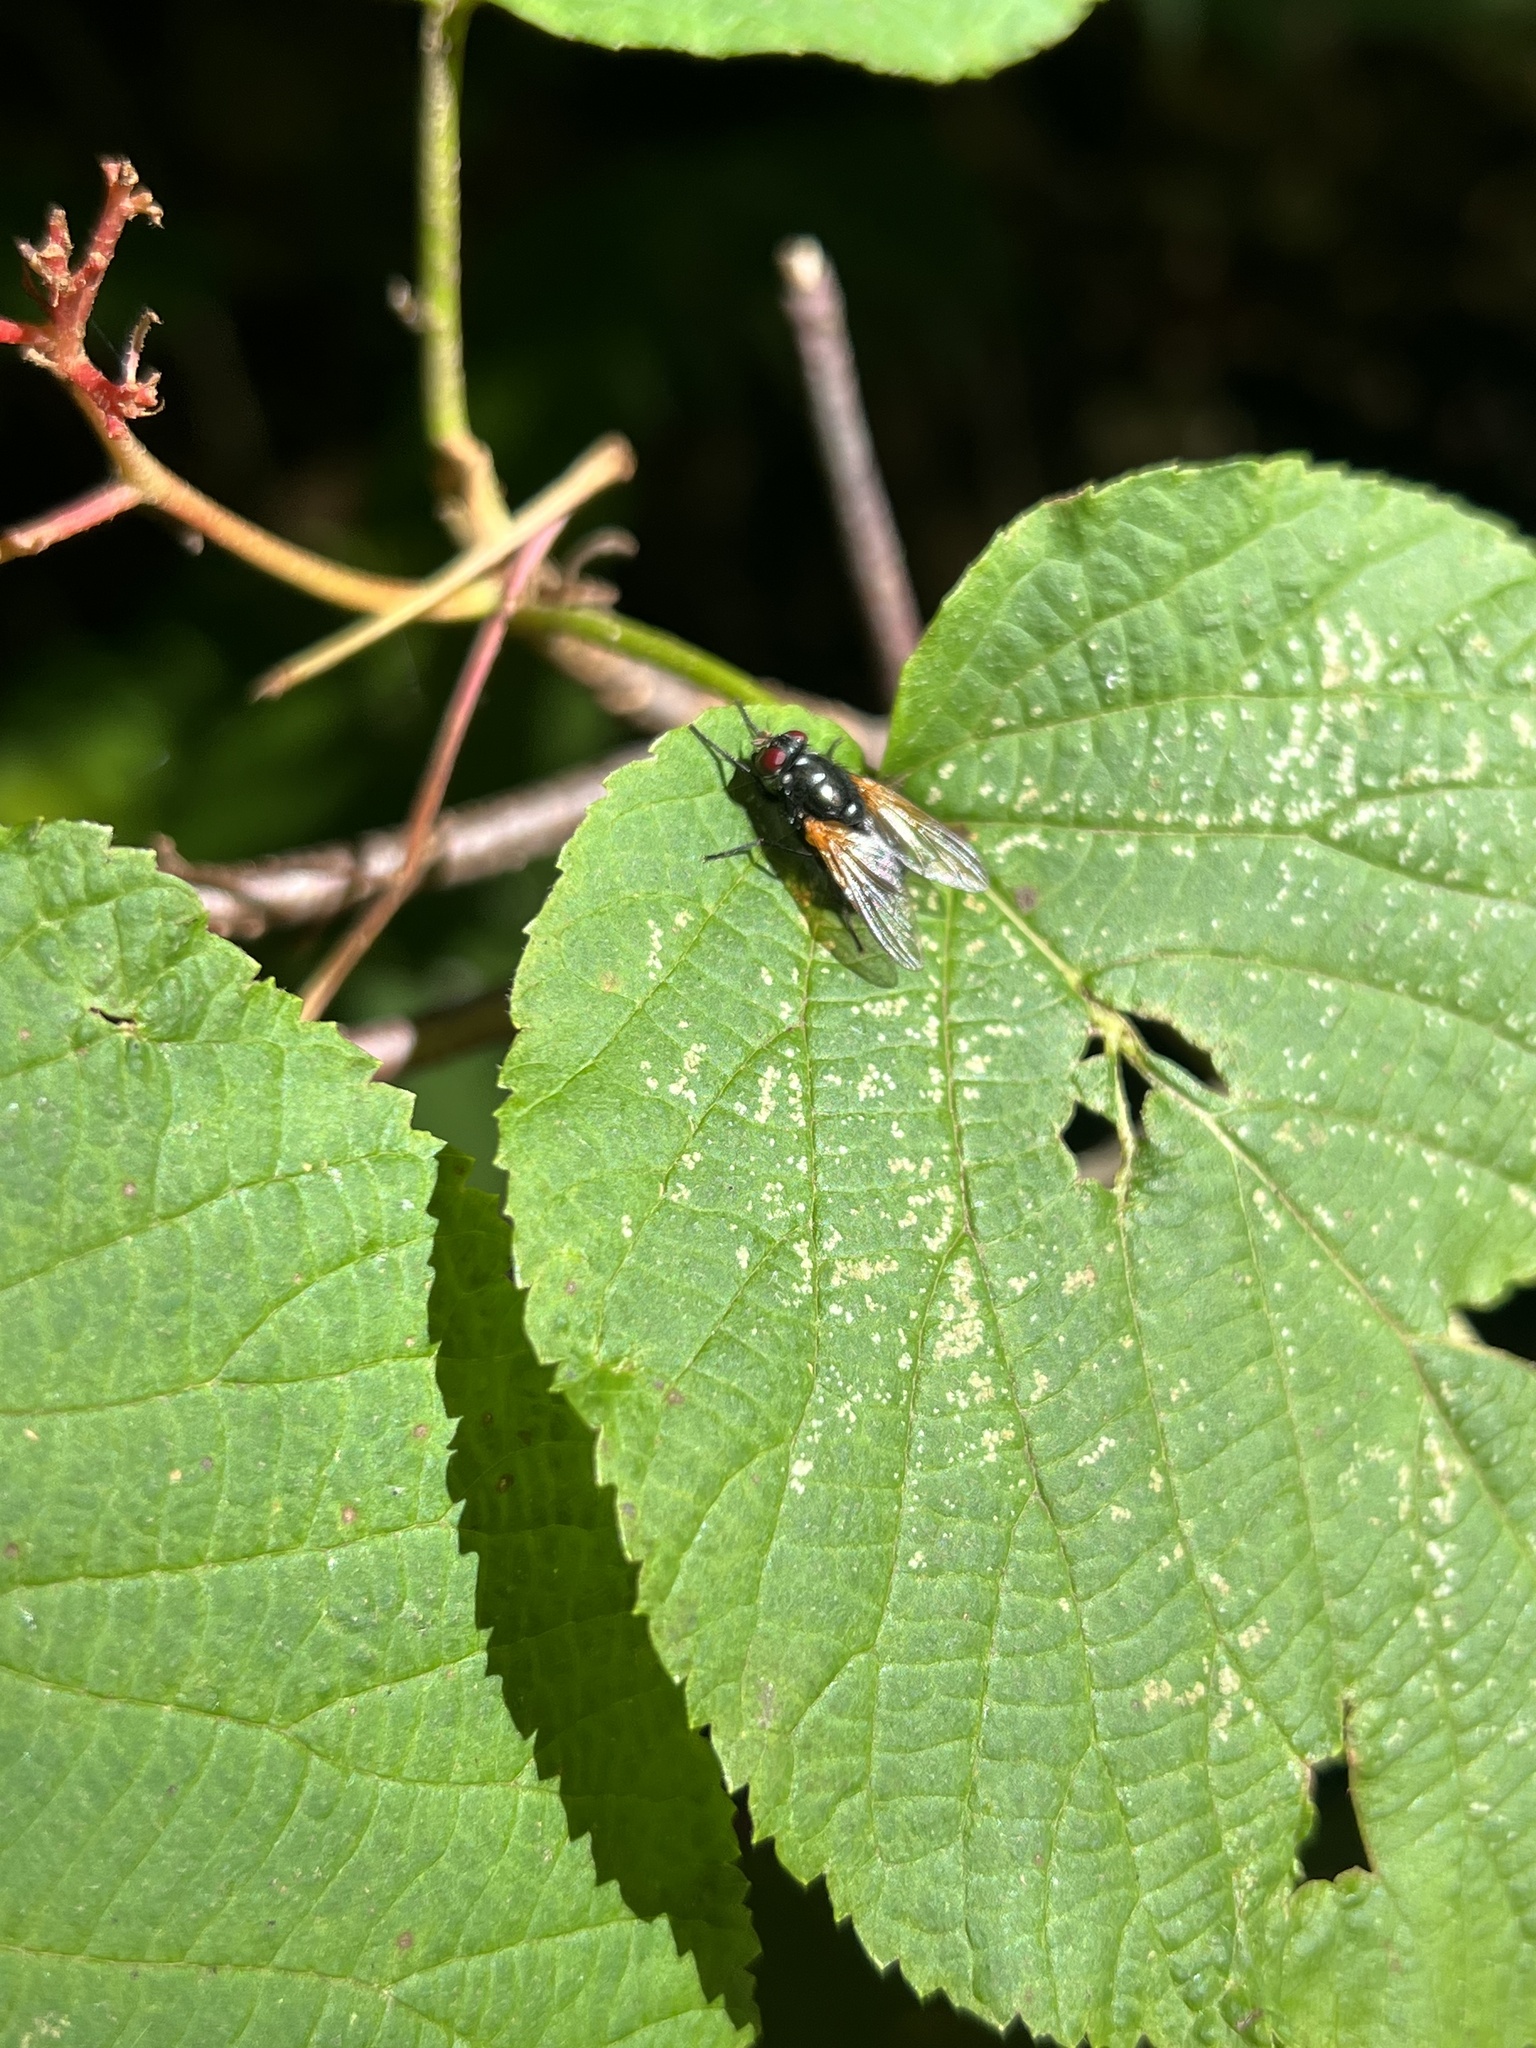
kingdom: Animalia
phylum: Arthropoda
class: Insecta
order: Diptera
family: Muscidae
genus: Mesembrina
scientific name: Mesembrina latreillii
